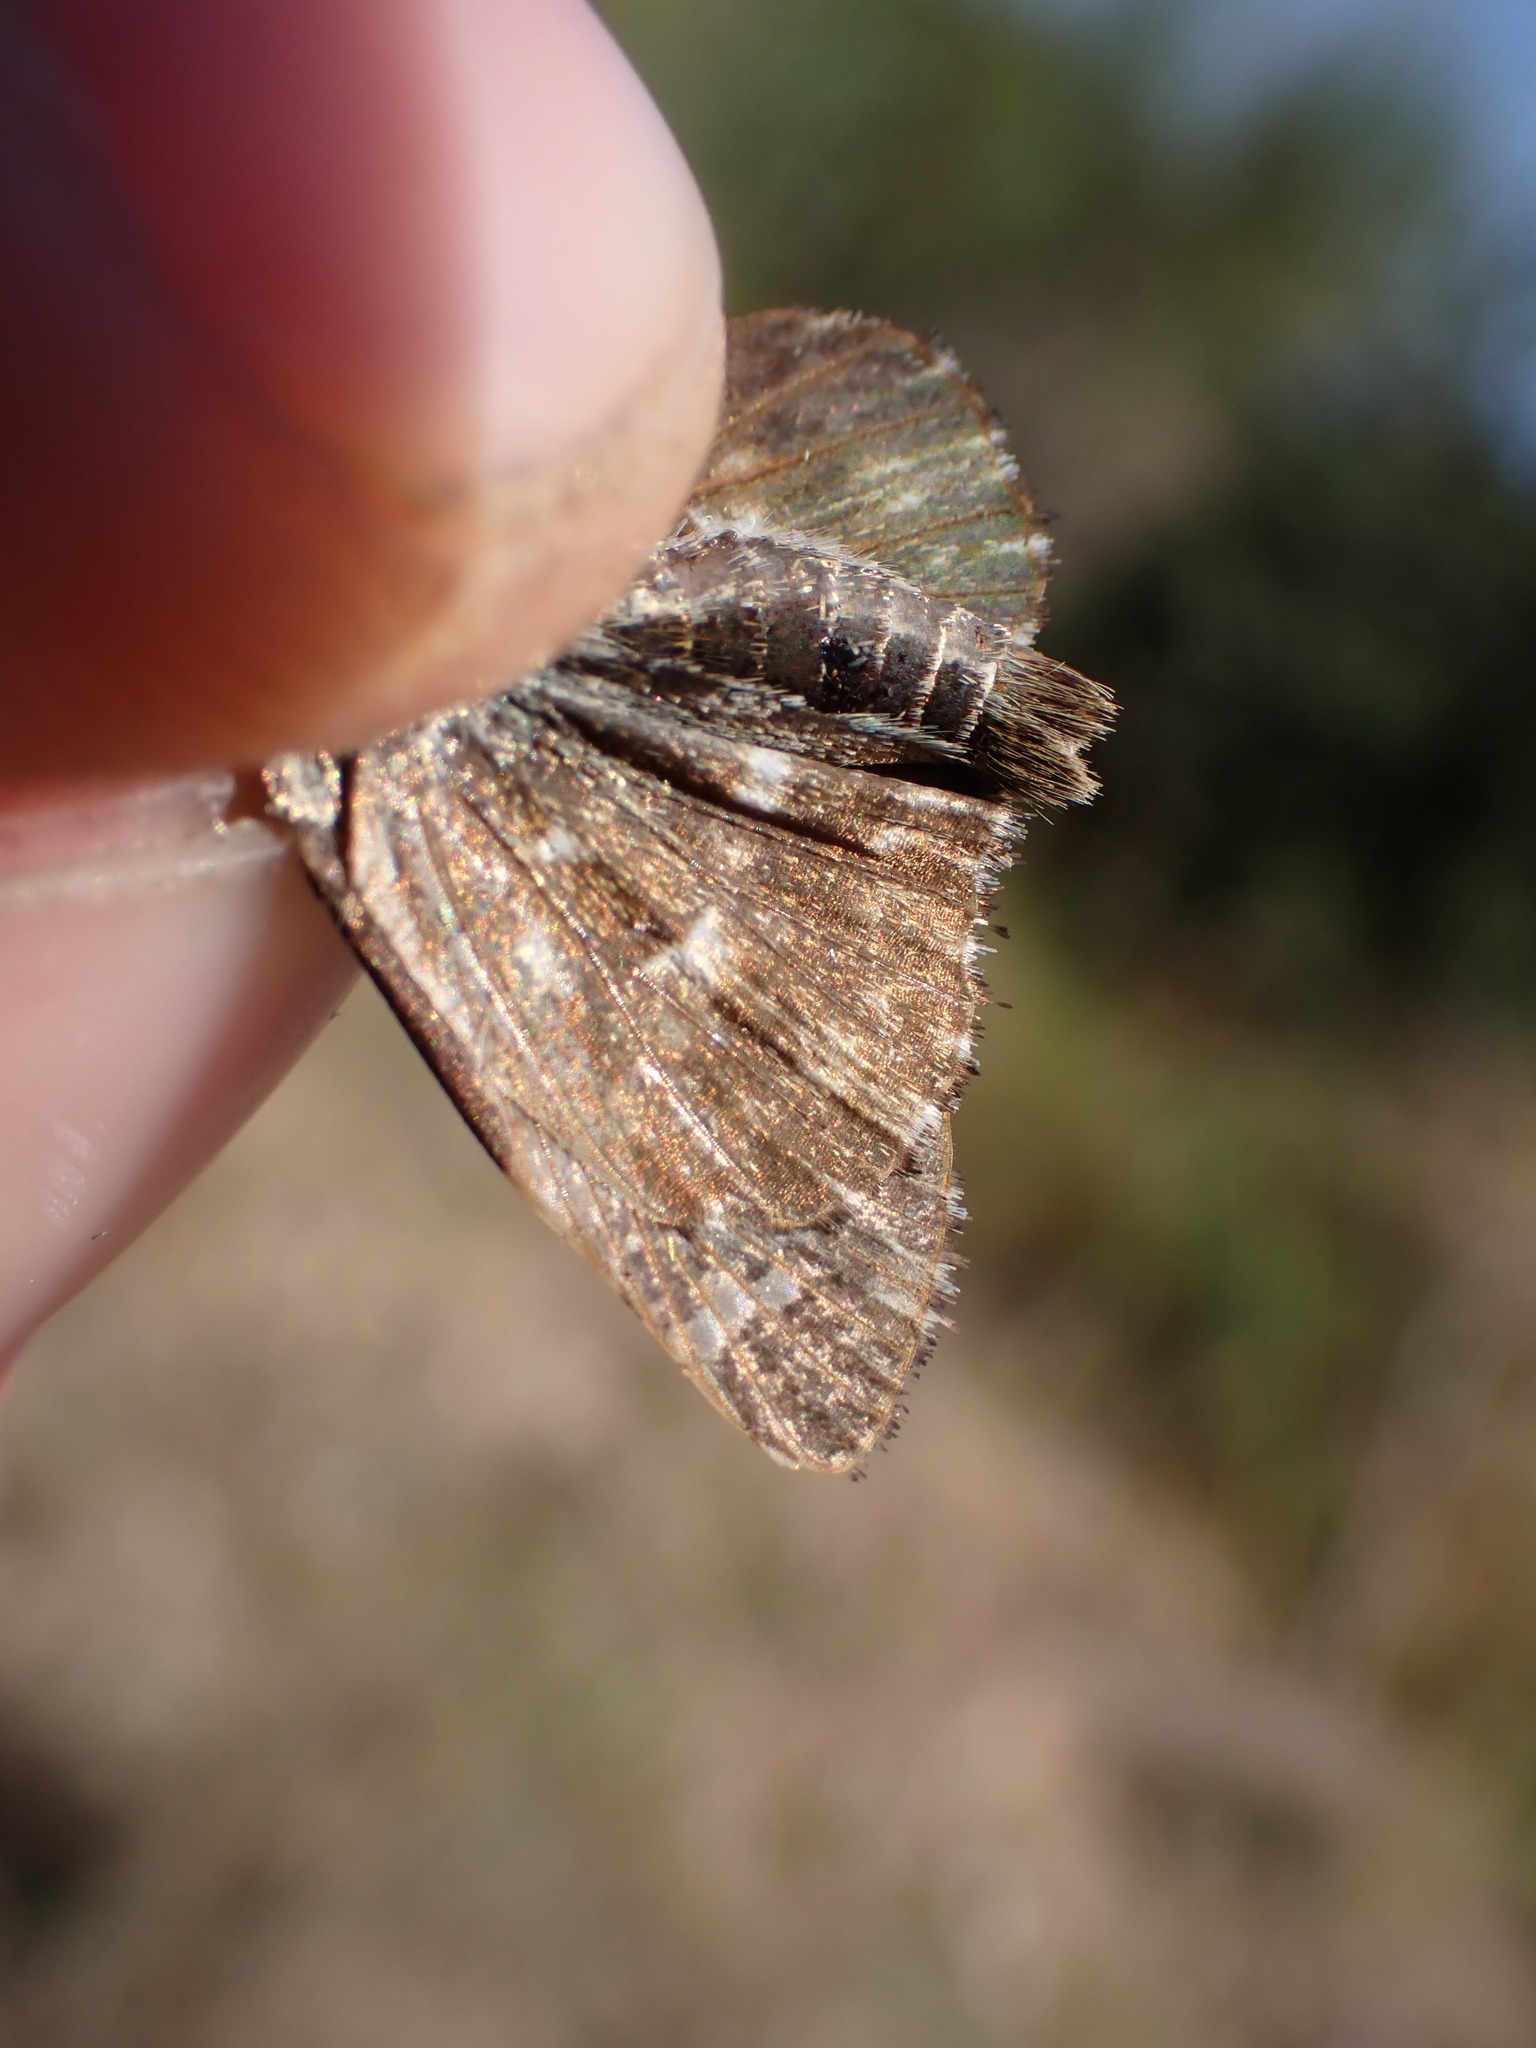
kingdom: Animalia
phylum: Arthropoda
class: Insecta
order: Lepidoptera
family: Hesperiidae
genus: Carcharodus
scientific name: Carcharodus alceae
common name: Mallow skipper
